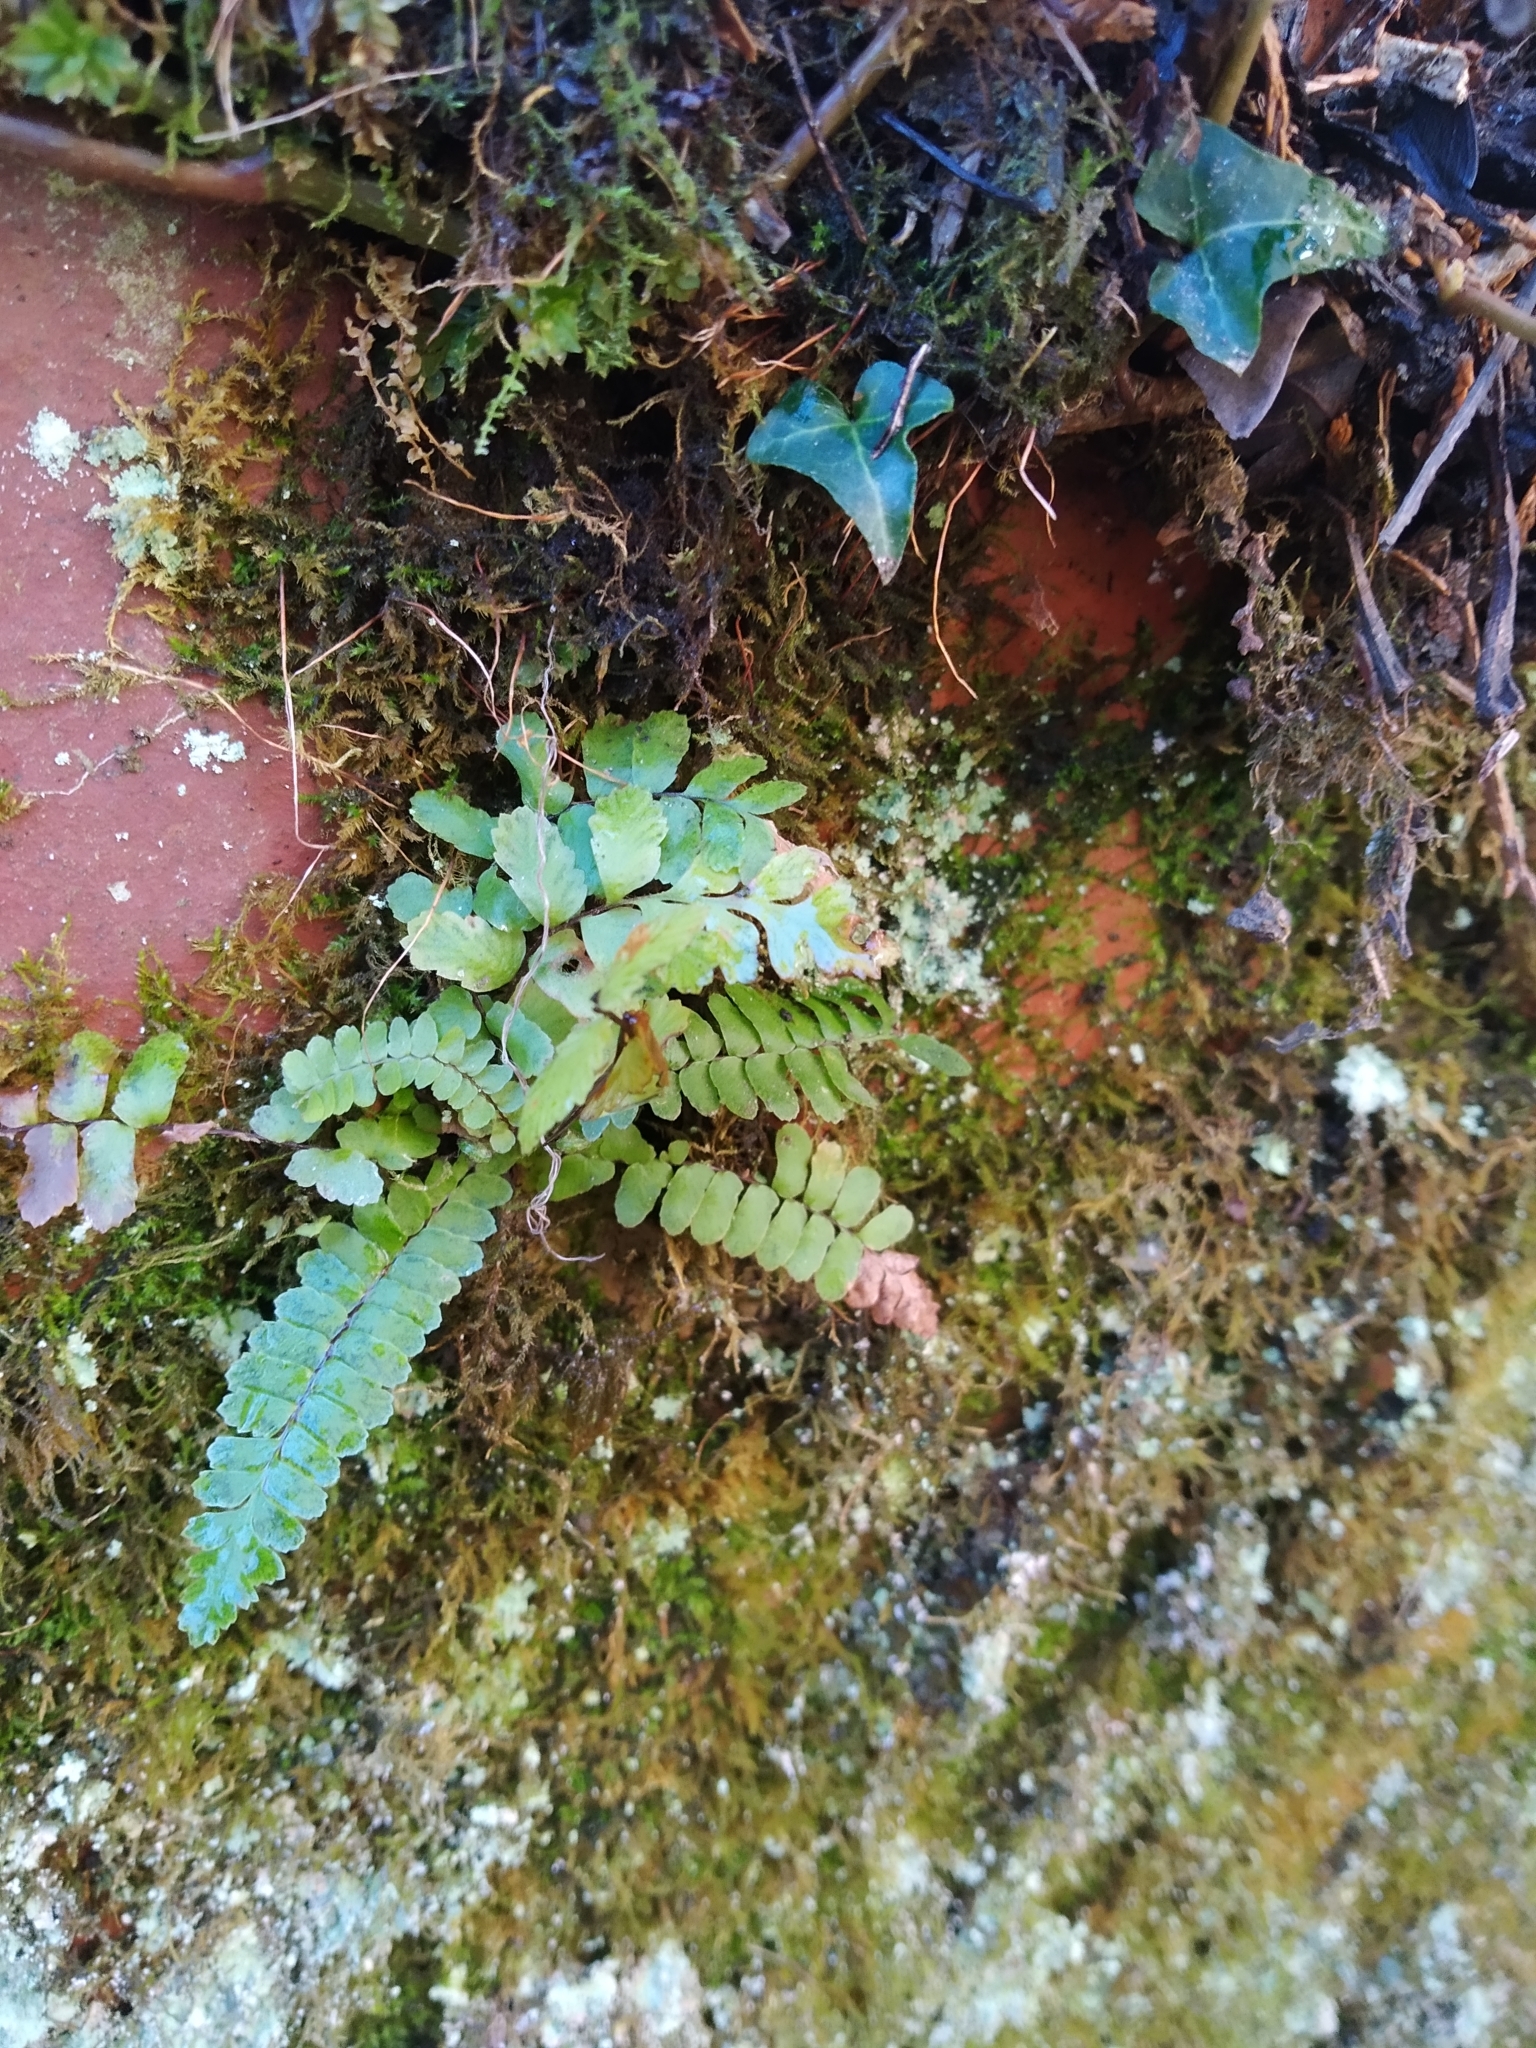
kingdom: Plantae
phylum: Tracheophyta
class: Polypodiopsida
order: Polypodiales
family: Aspleniaceae
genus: Asplenium
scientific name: Asplenium platyneuron
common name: Ebony spleenwort
